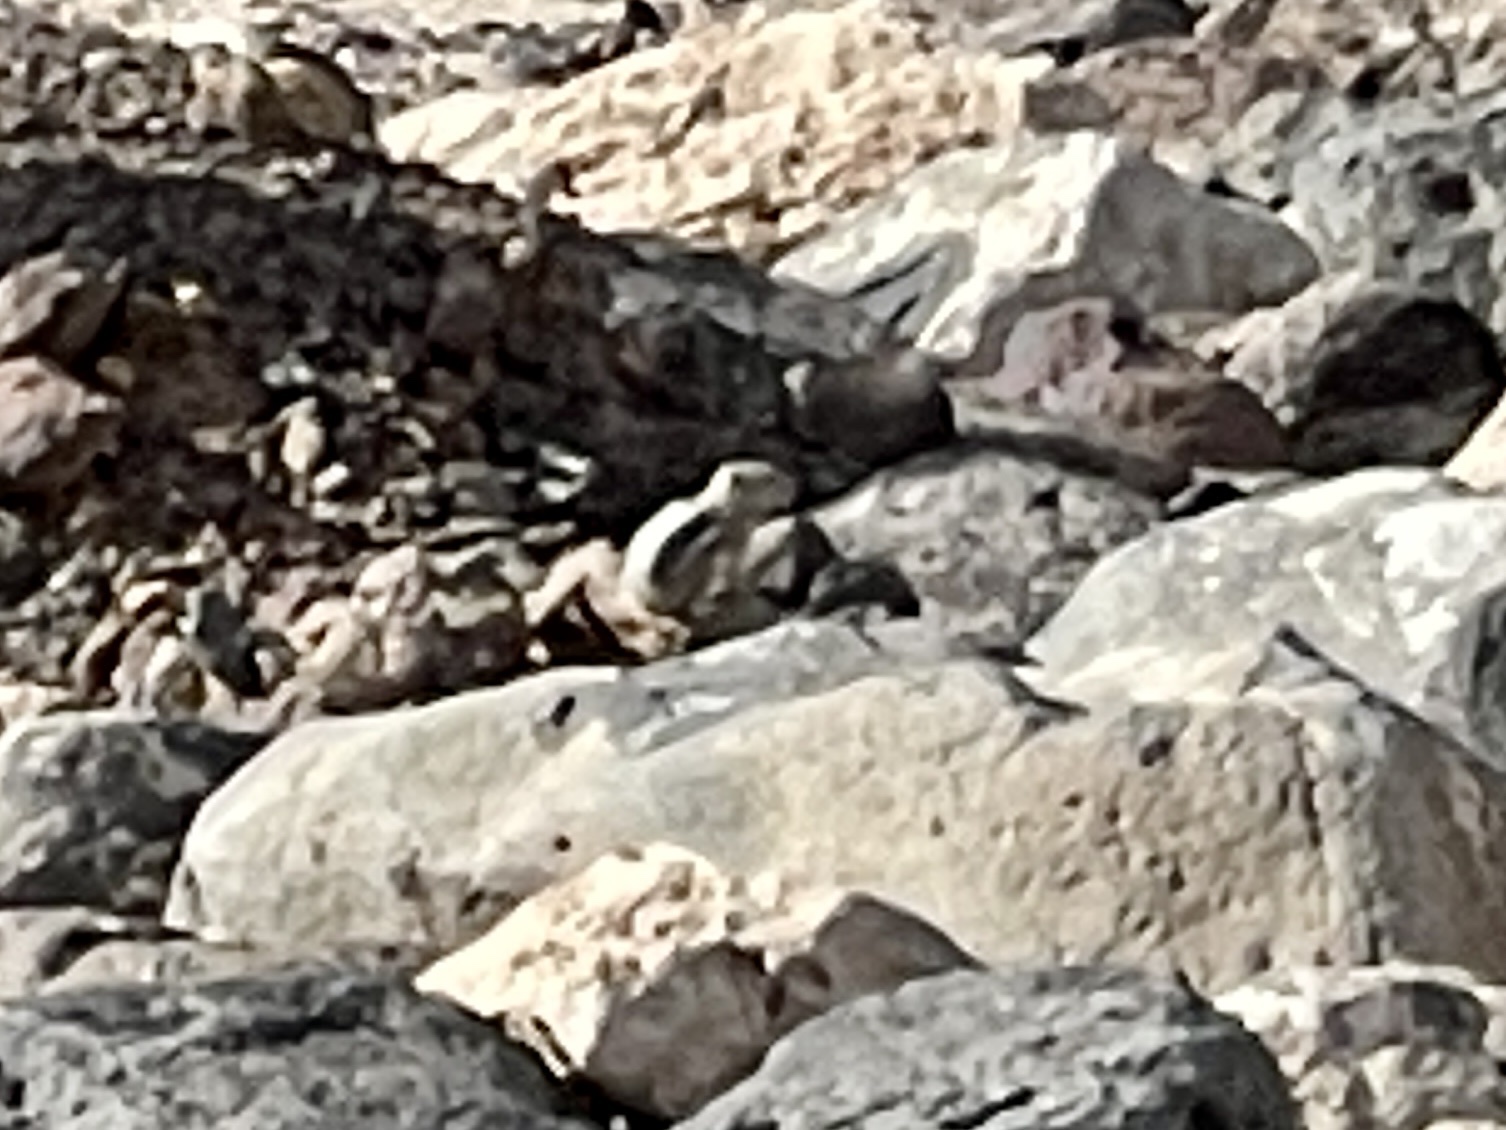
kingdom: Animalia
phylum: Chordata
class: Mammalia
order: Rodentia
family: Sciuridae
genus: Ammospermophilus
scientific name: Ammospermophilus leucurus
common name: White-tailed antelope squirrel
